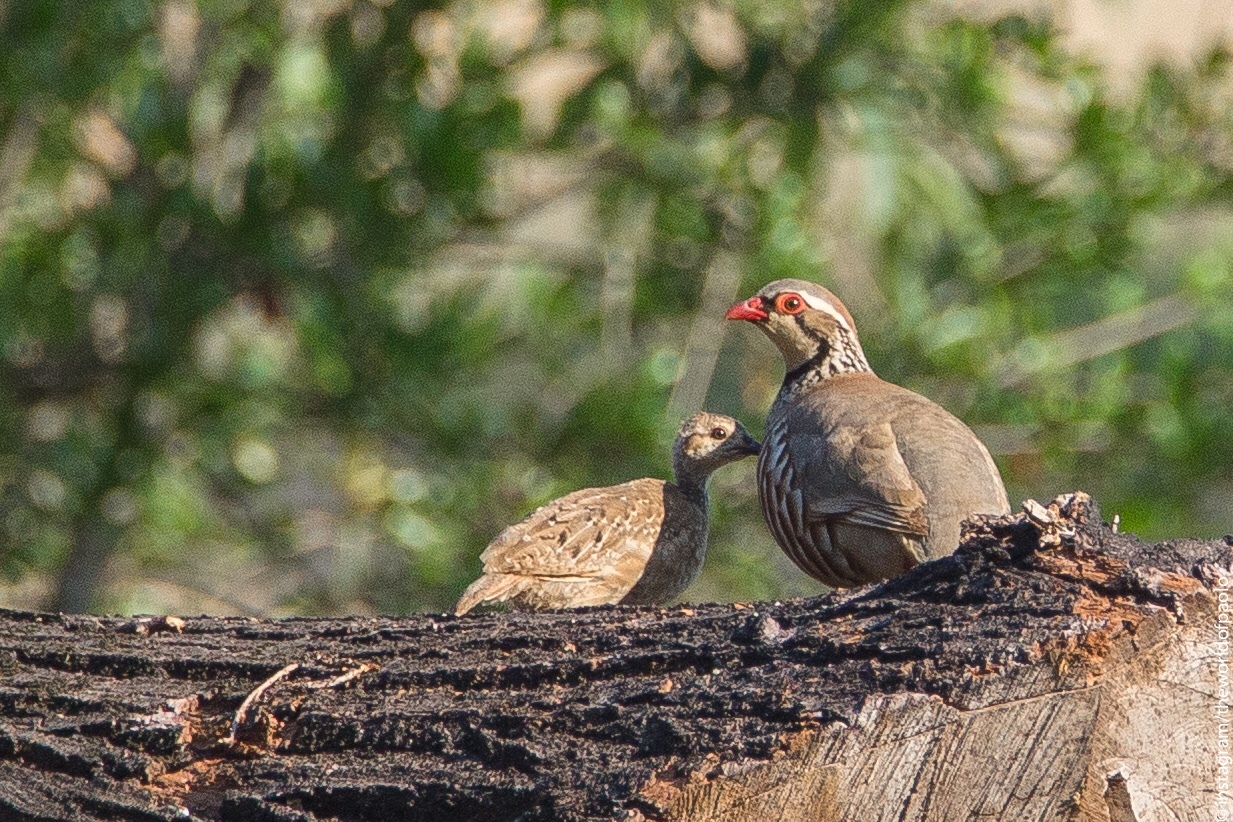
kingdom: Animalia
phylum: Chordata
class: Aves
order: Galliformes
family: Phasianidae
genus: Alectoris
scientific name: Alectoris rufa
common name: Red-legged partridge
